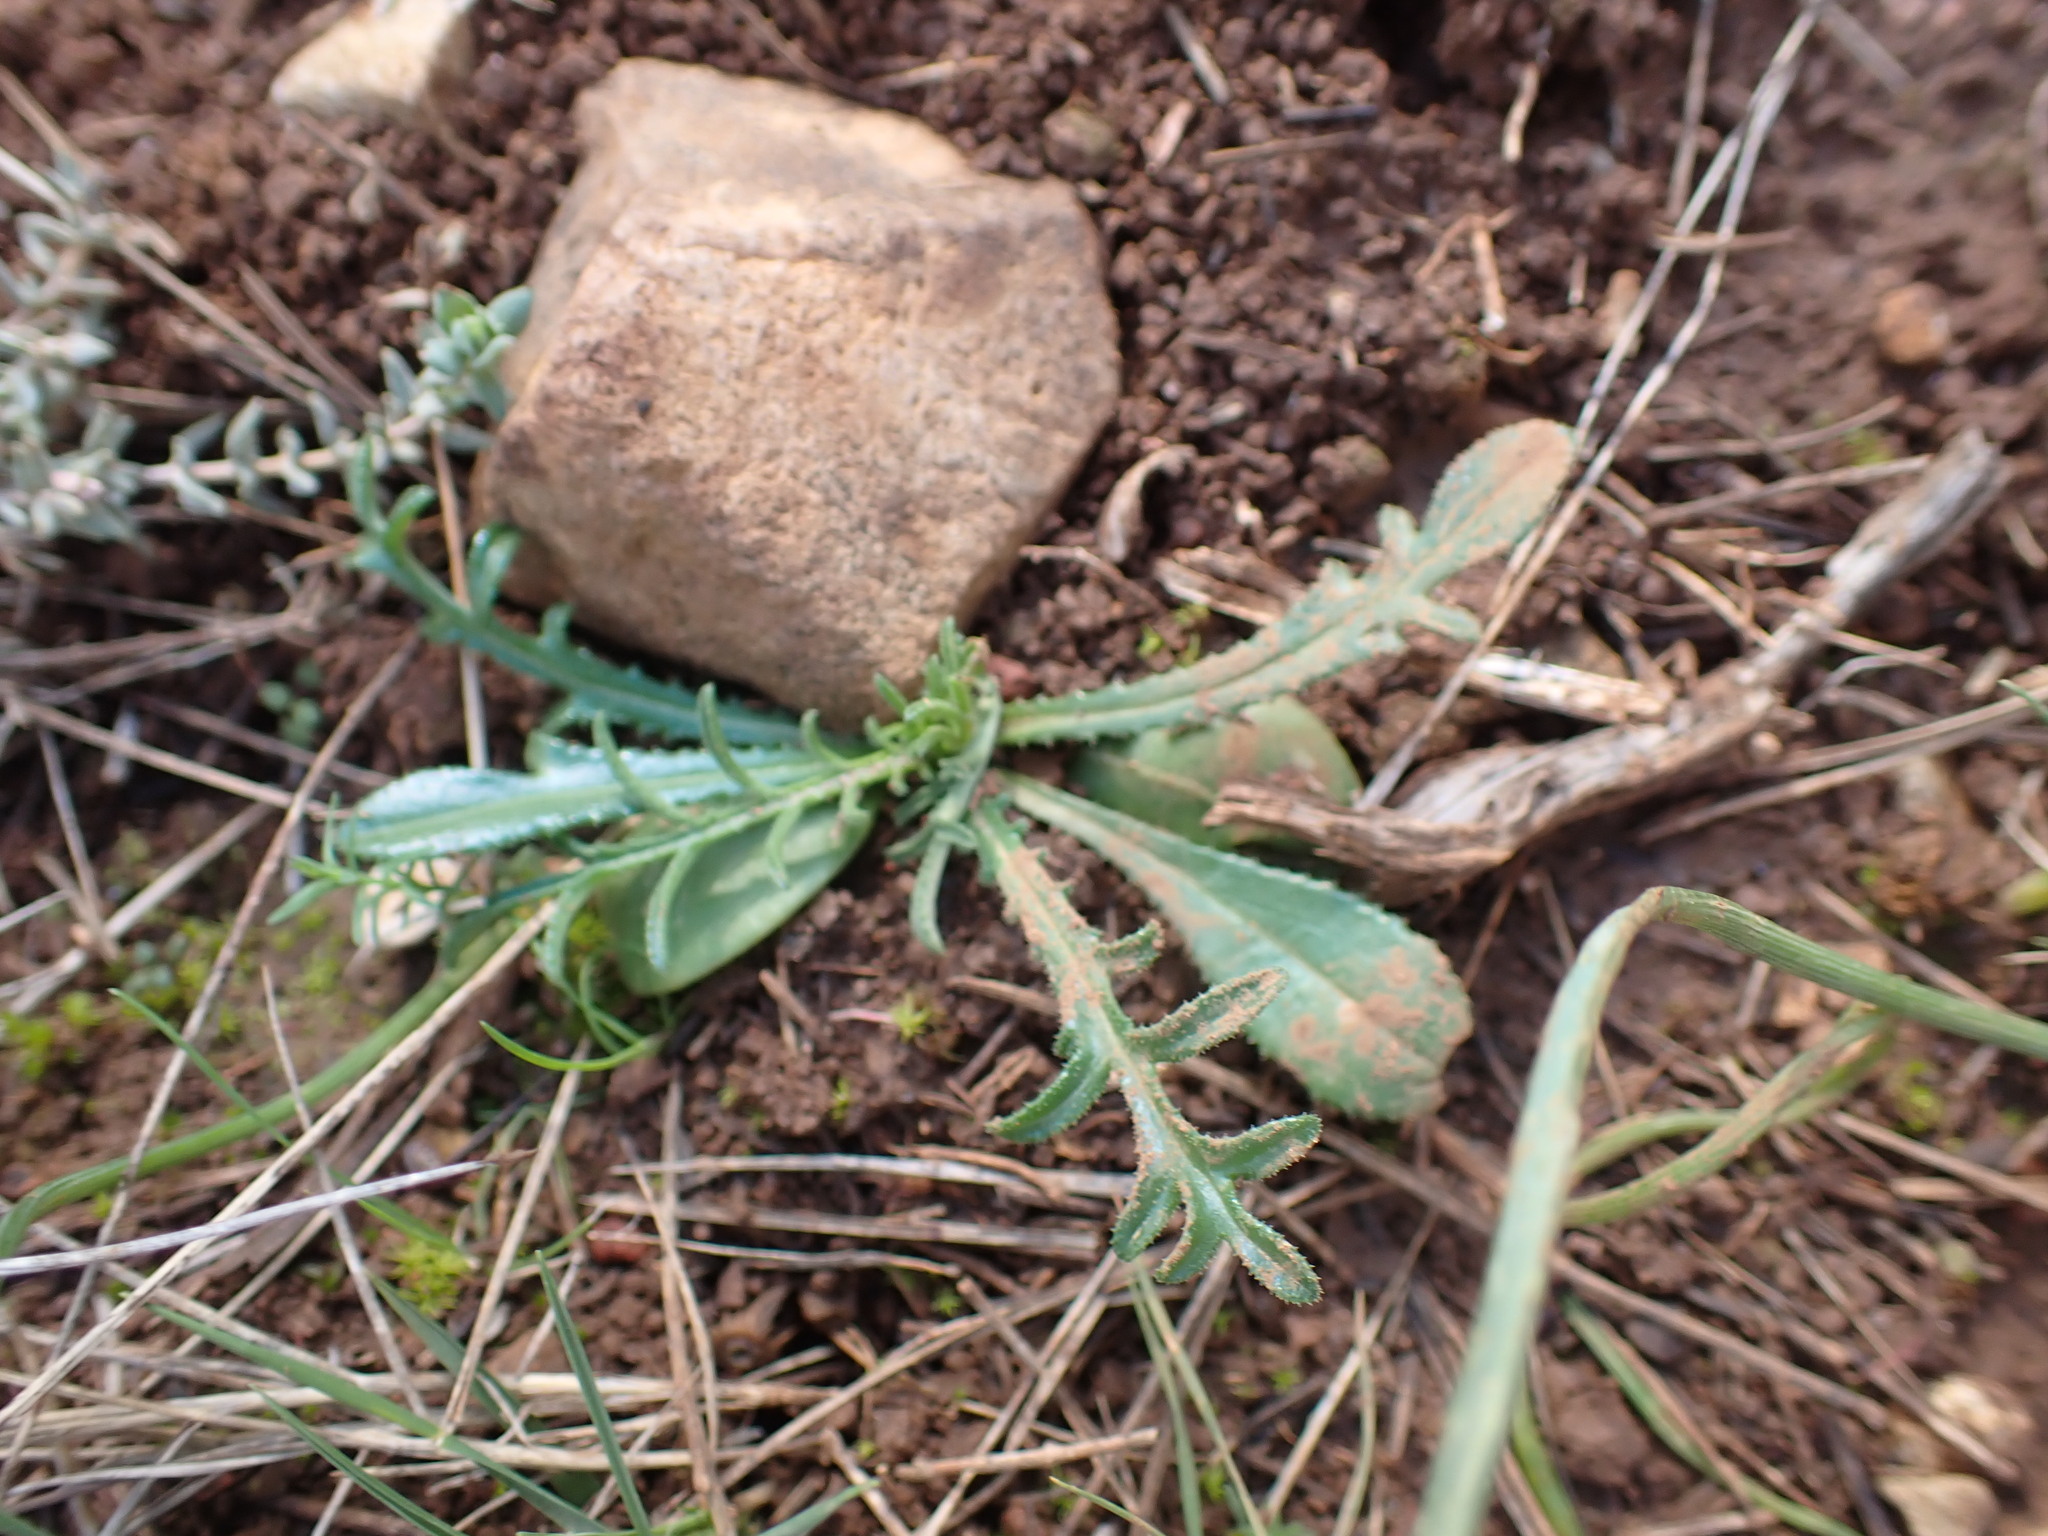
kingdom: Plantae
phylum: Tracheophyta
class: Magnoliopsida
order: Asterales
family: Asteraceae
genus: Crupina
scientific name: Crupina vulgaris
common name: Common crupina
